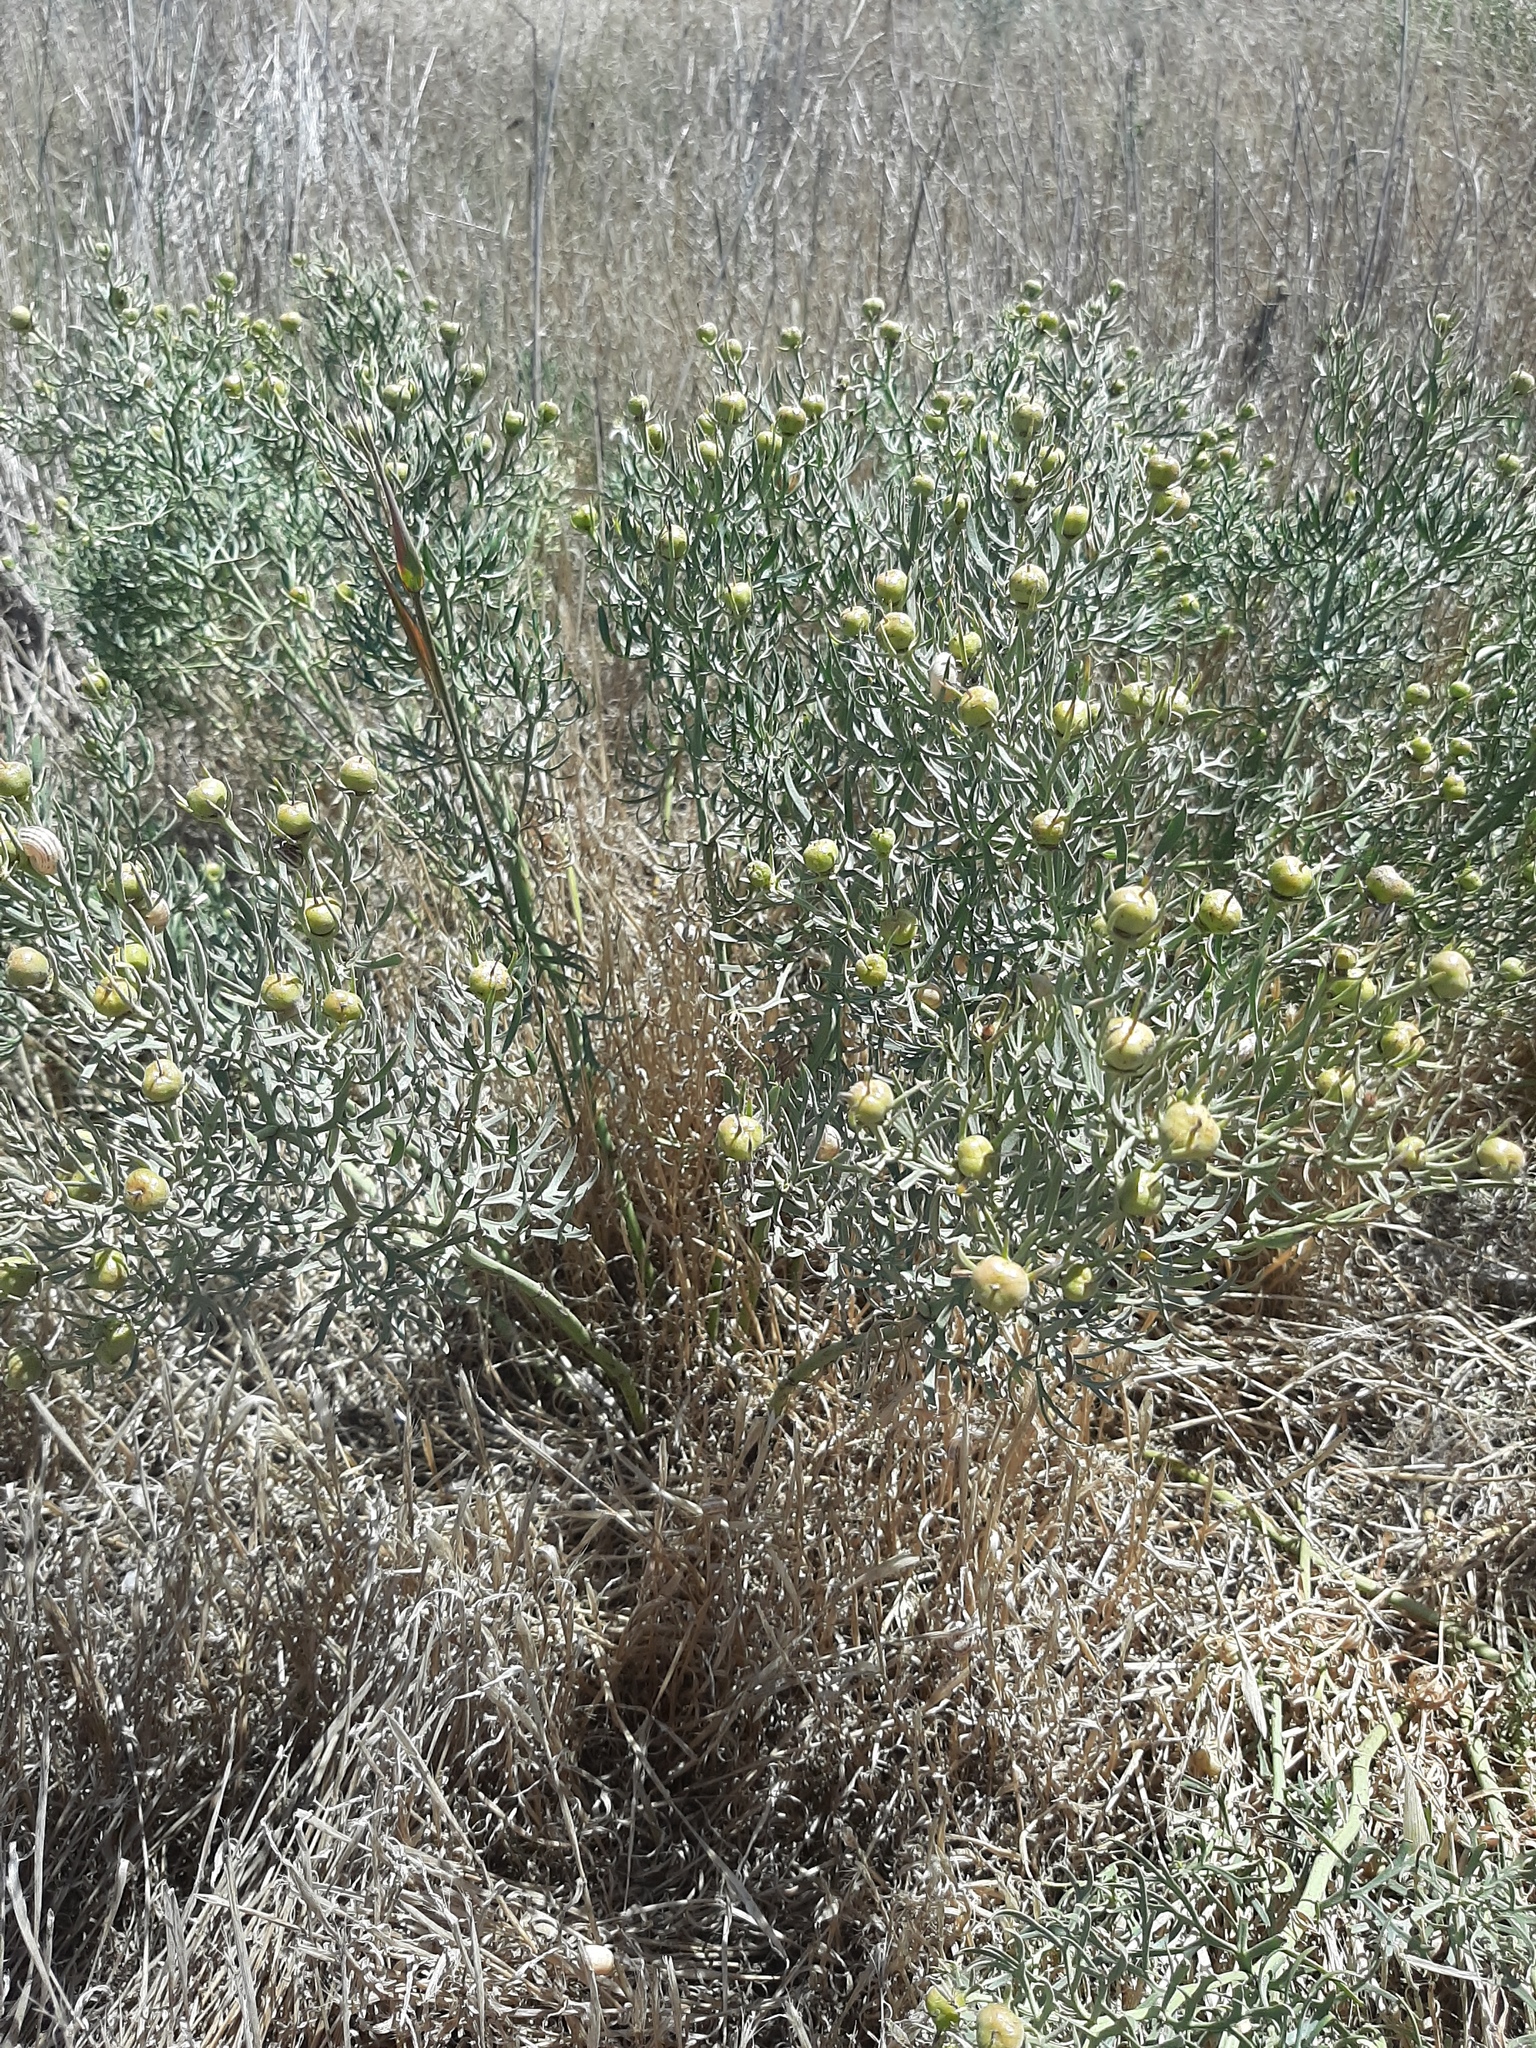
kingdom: Plantae
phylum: Tracheophyta
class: Magnoliopsida
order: Sapindales
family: Tetradiclidaceae
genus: Peganum
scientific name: Peganum harmala
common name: Harmal peganum
